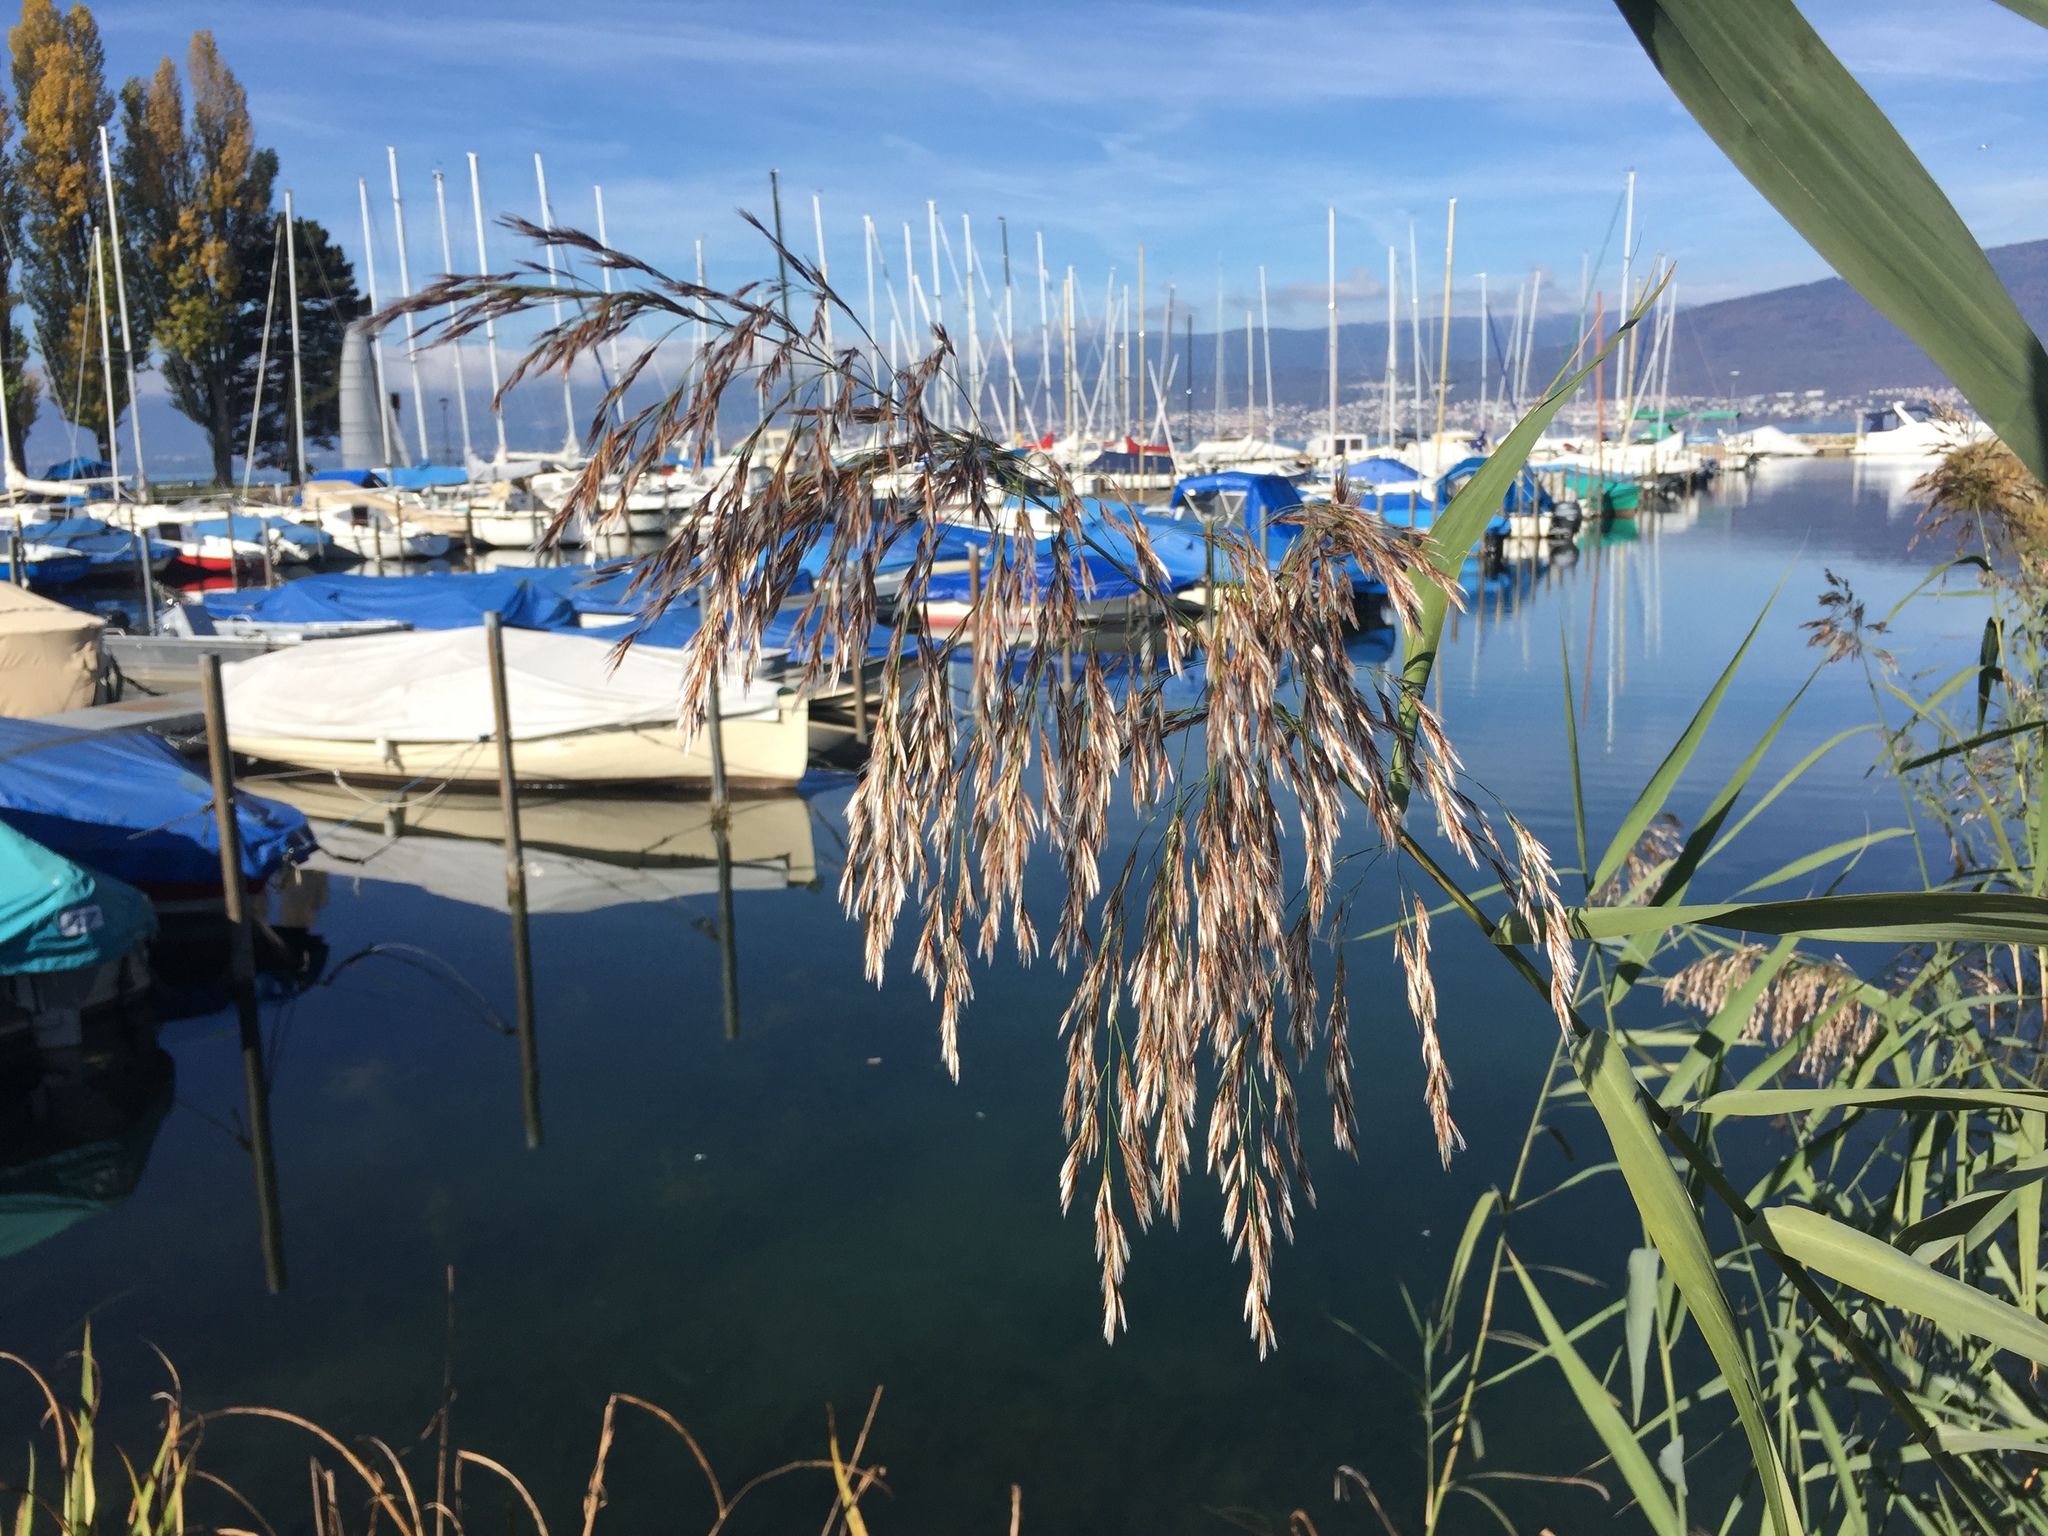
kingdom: Plantae
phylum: Tracheophyta
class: Liliopsida
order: Poales
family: Poaceae
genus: Phragmites
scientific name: Phragmites australis
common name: Common reed
